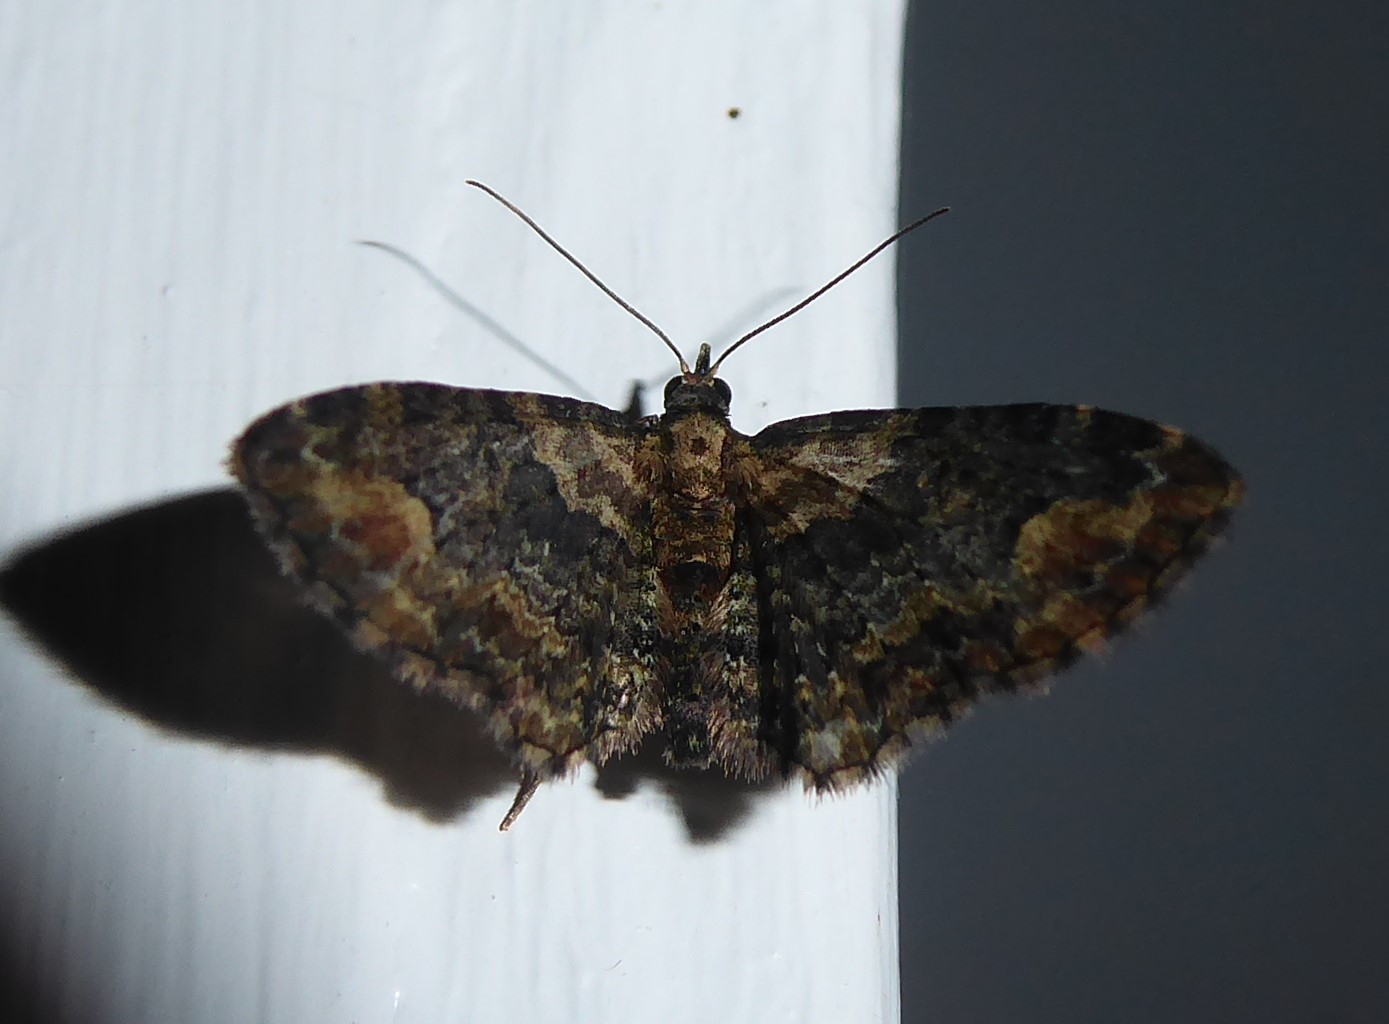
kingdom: Animalia
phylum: Arthropoda
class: Insecta
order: Lepidoptera
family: Geometridae
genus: Idaea
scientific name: Idaea mutanda
